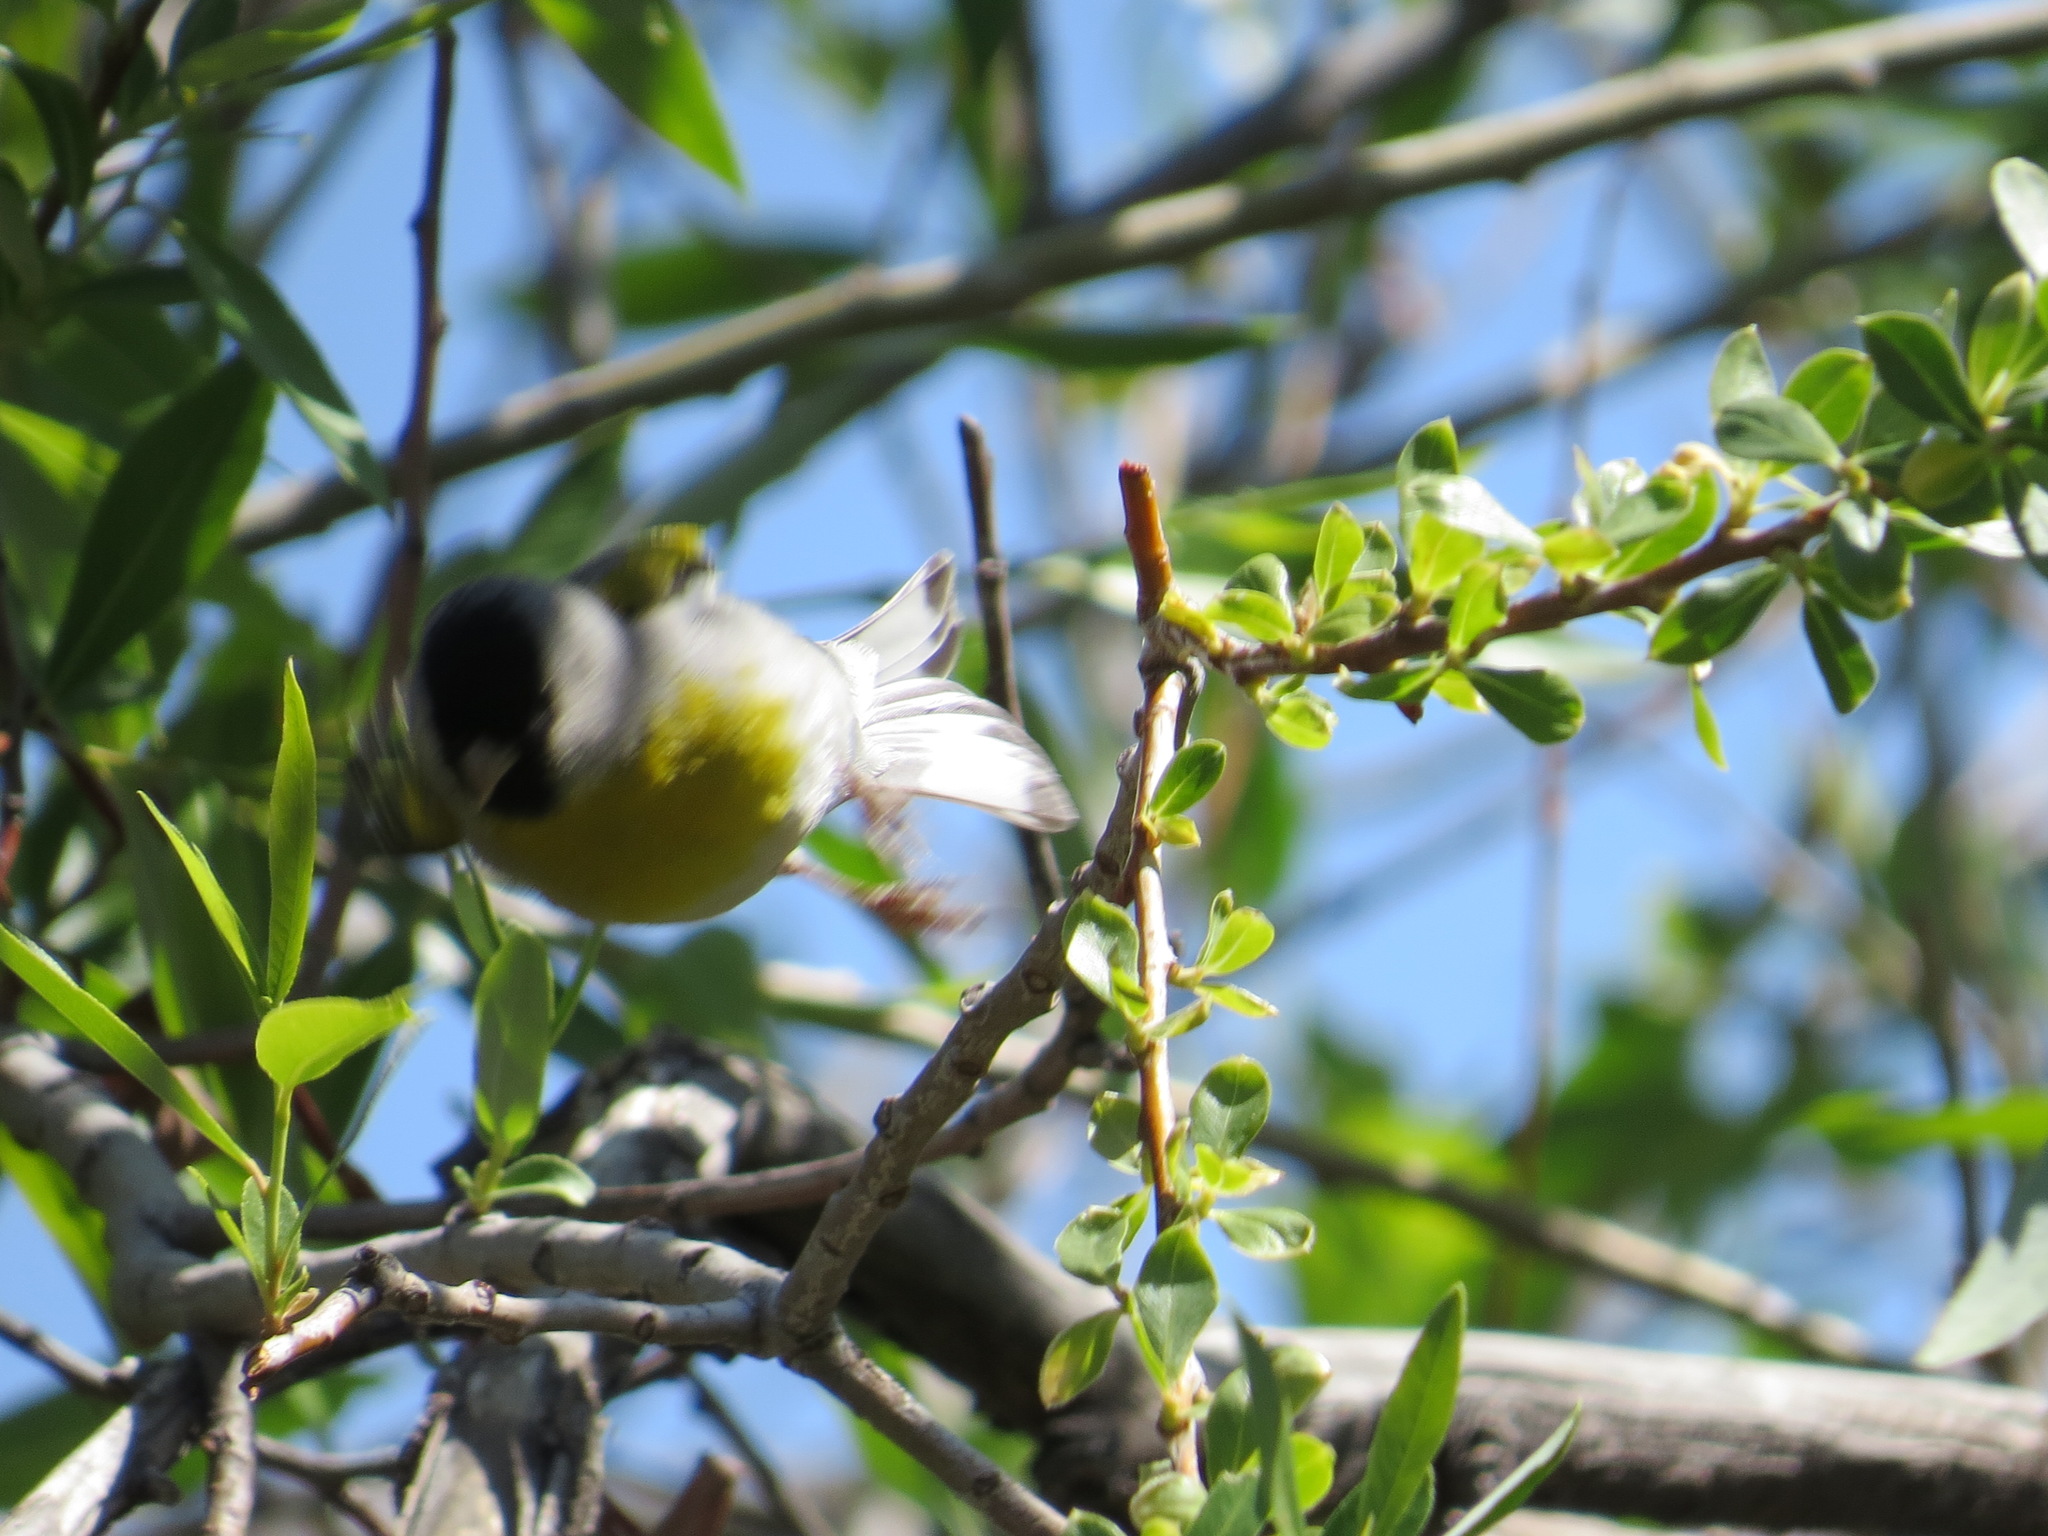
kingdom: Animalia
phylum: Chordata
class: Aves
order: Passeriformes
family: Fringillidae
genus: Spinus
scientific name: Spinus lawrencei
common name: Lawrence's goldfinch
